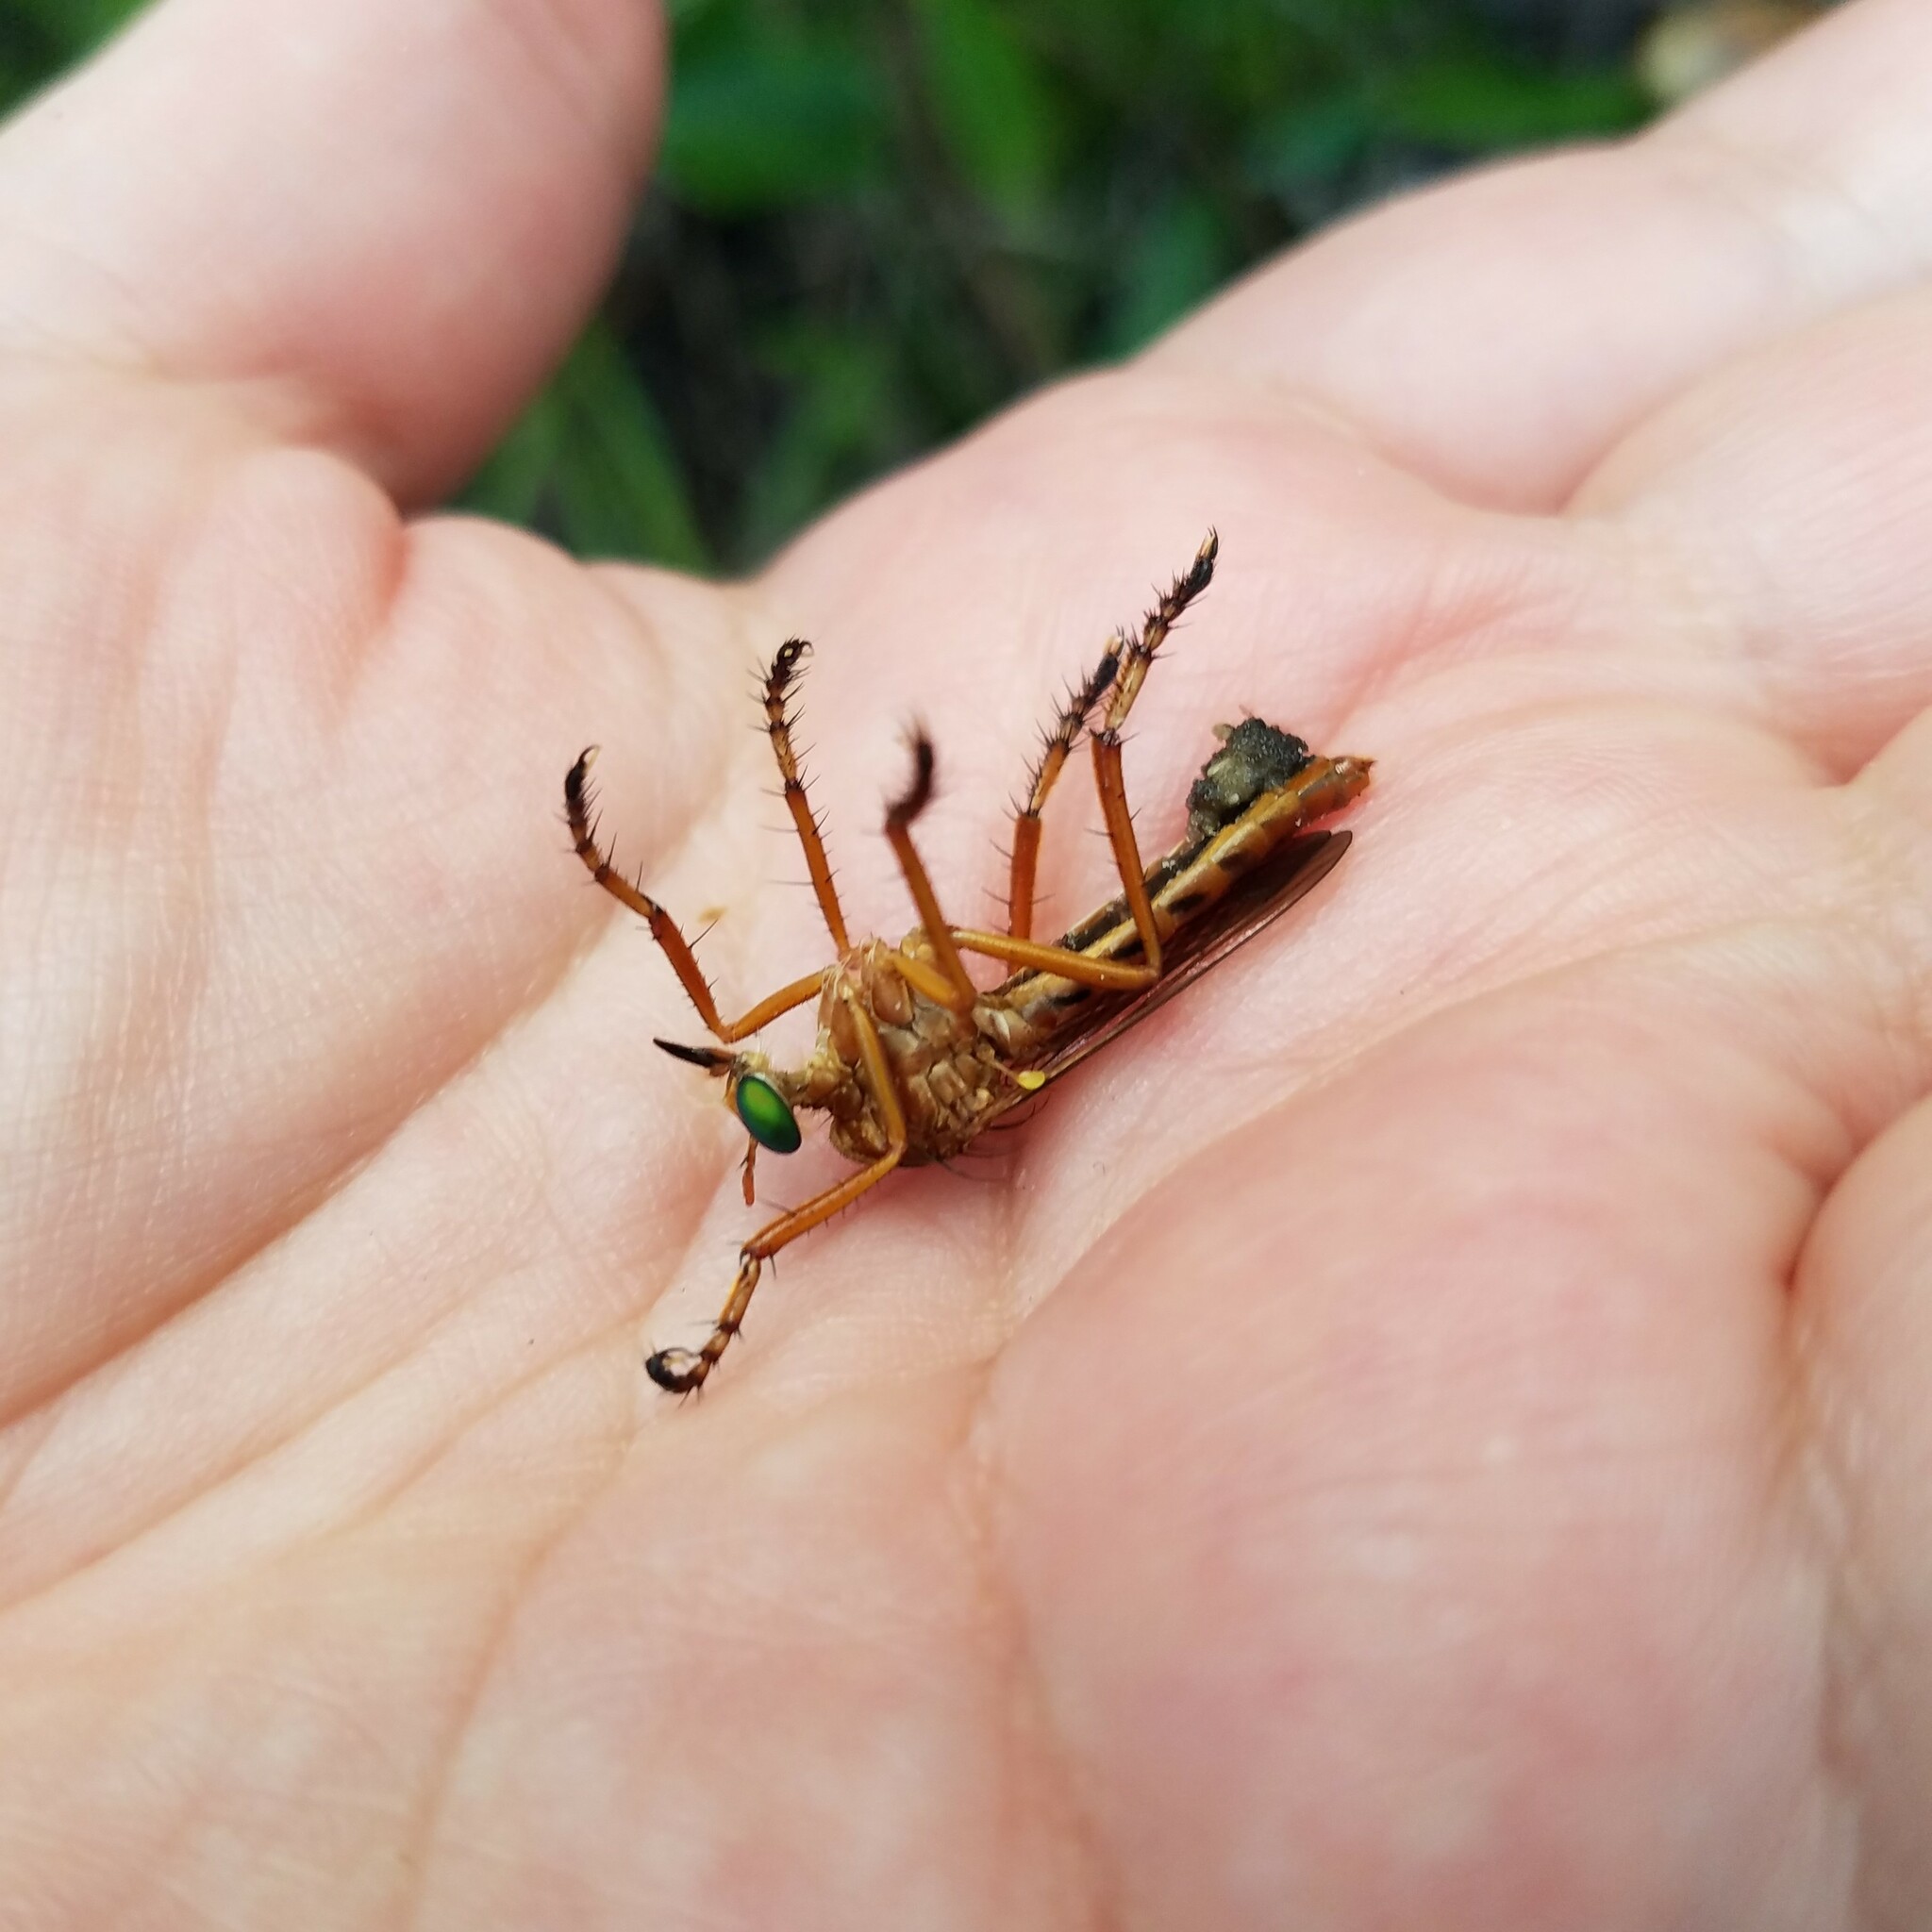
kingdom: Animalia
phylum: Arthropoda
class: Insecta
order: Diptera
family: Asilidae
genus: Diogmites
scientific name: Diogmites esuriens
